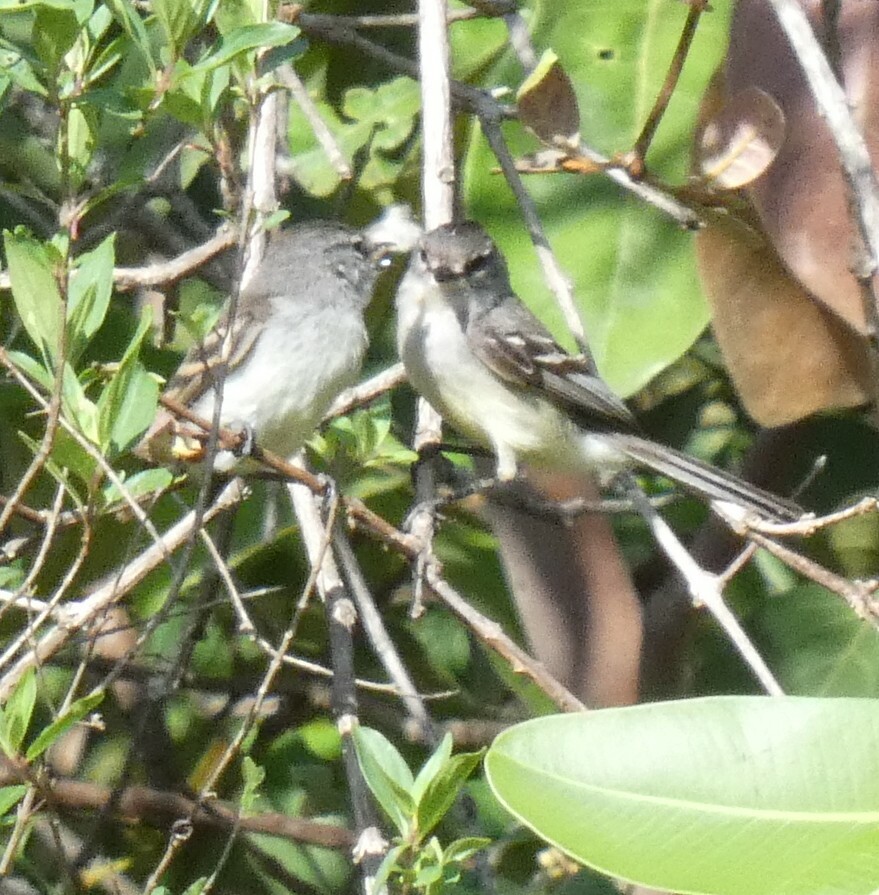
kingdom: Animalia
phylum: Chordata
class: Aves
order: Passeriformes
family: Tyrannidae
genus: Serpophaga
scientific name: Serpophaga subcristata
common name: White-crested tyrannulet
